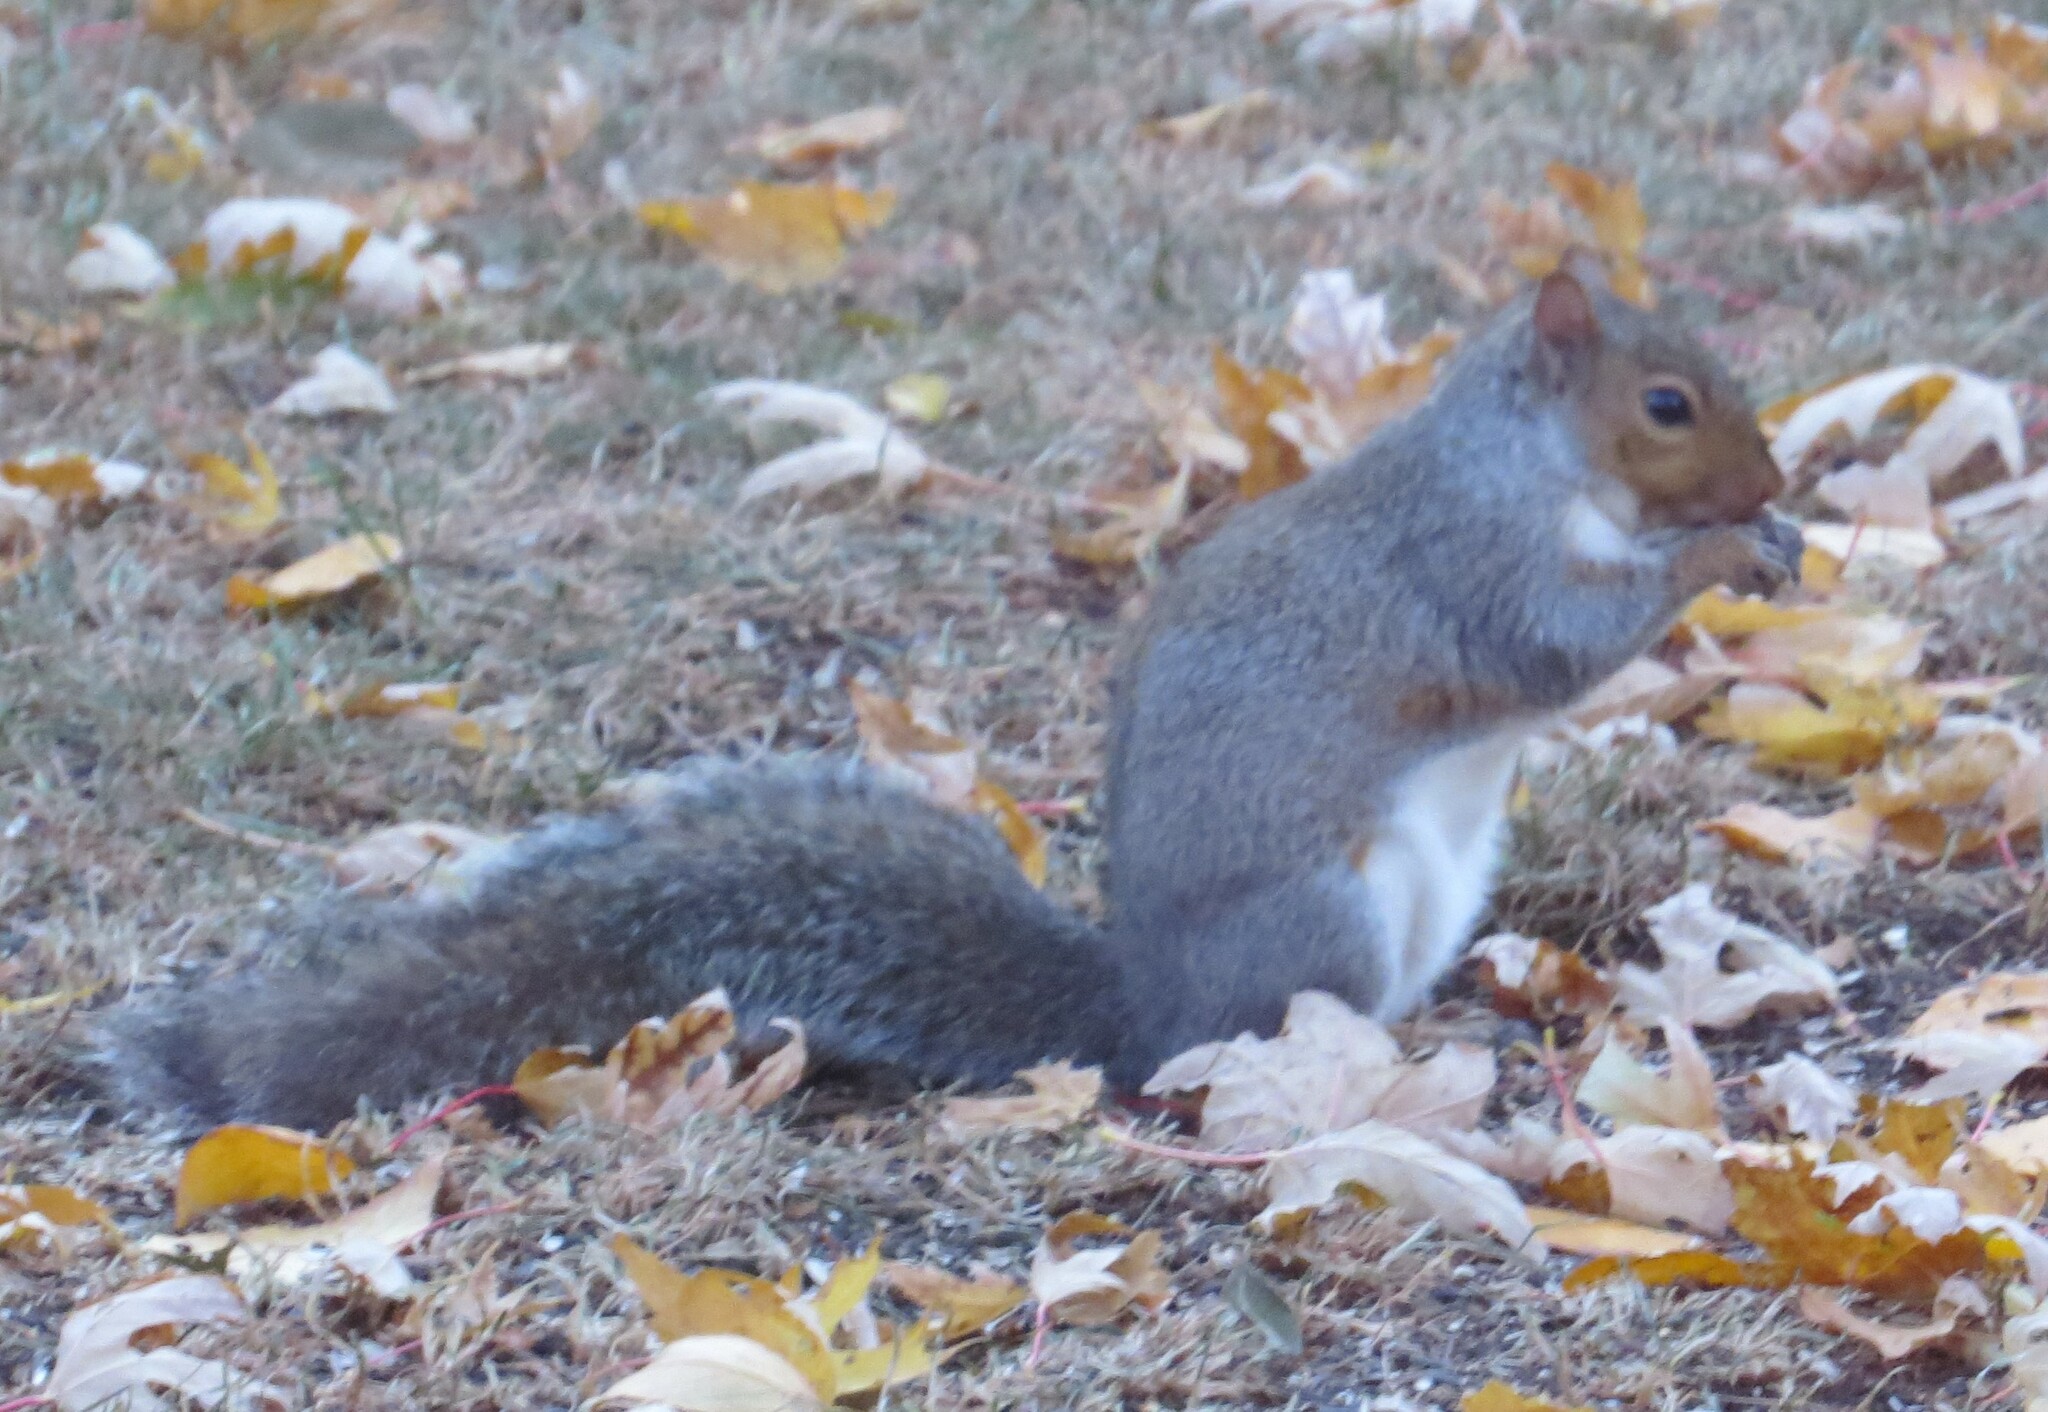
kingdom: Animalia
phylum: Chordata
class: Mammalia
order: Rodentia
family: Sciuridae
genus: Sciurus
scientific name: Sciurus carolinensis
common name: Eastern gray squirrel
